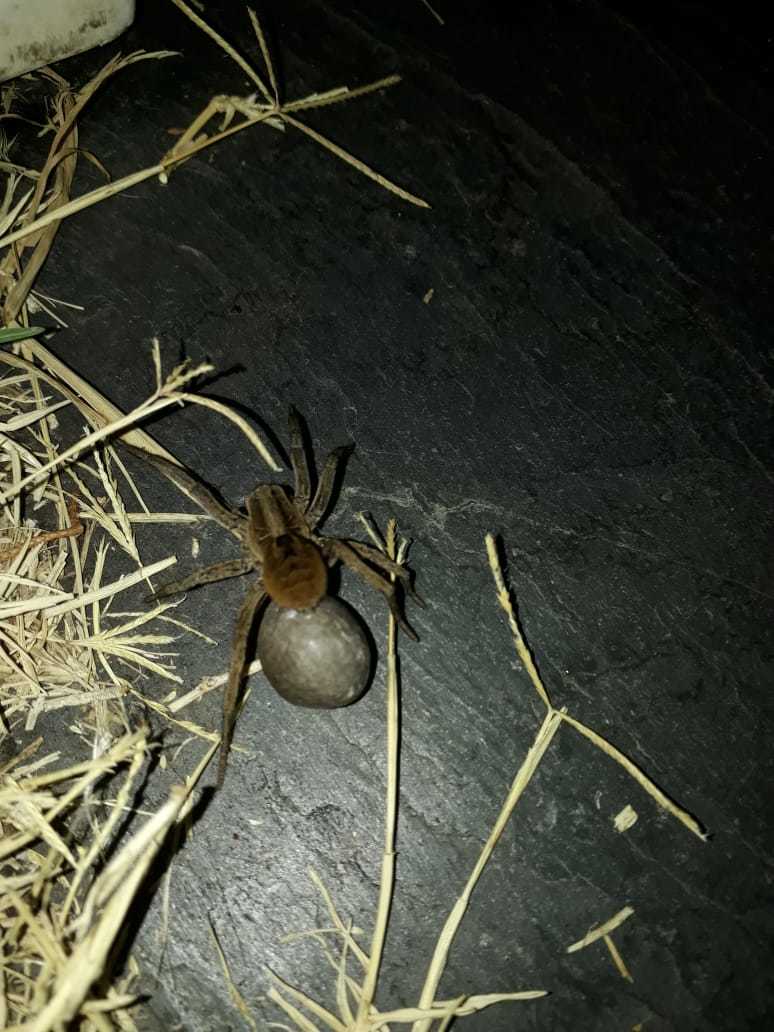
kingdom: Animalia
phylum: Arthropoda
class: Arachnida
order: Araneae
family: Lycosidae
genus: Lycosa
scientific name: Lycosa erythrognatha
